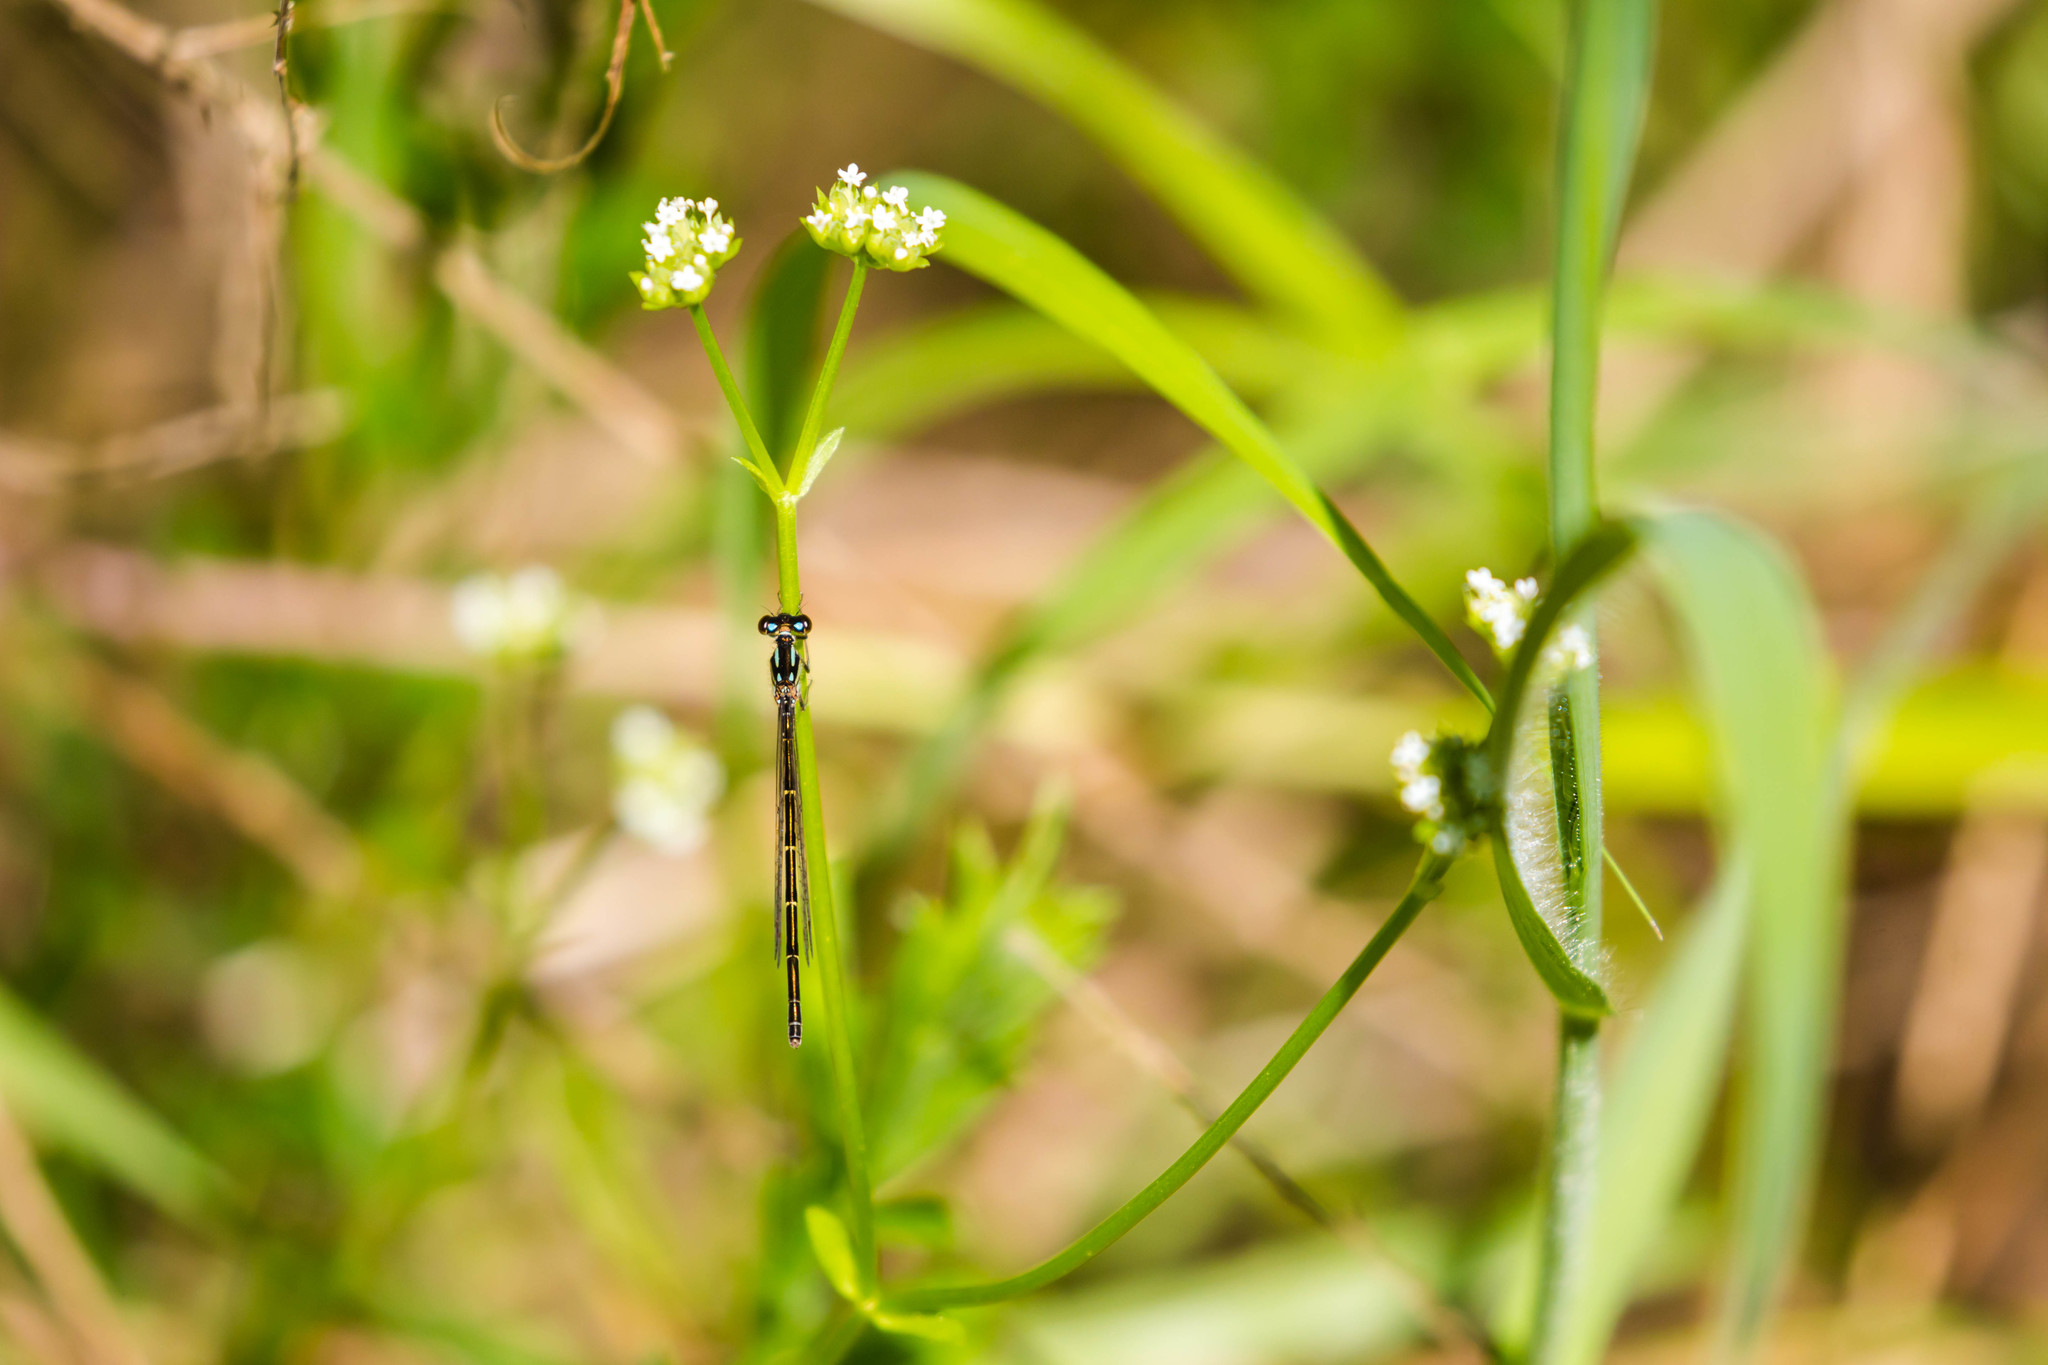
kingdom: Animalia
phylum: Arthropoda
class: Insecta
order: Odonata
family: Coenagrionidae
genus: Ischnura
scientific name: Ischnura posita
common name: Fragile forktail
